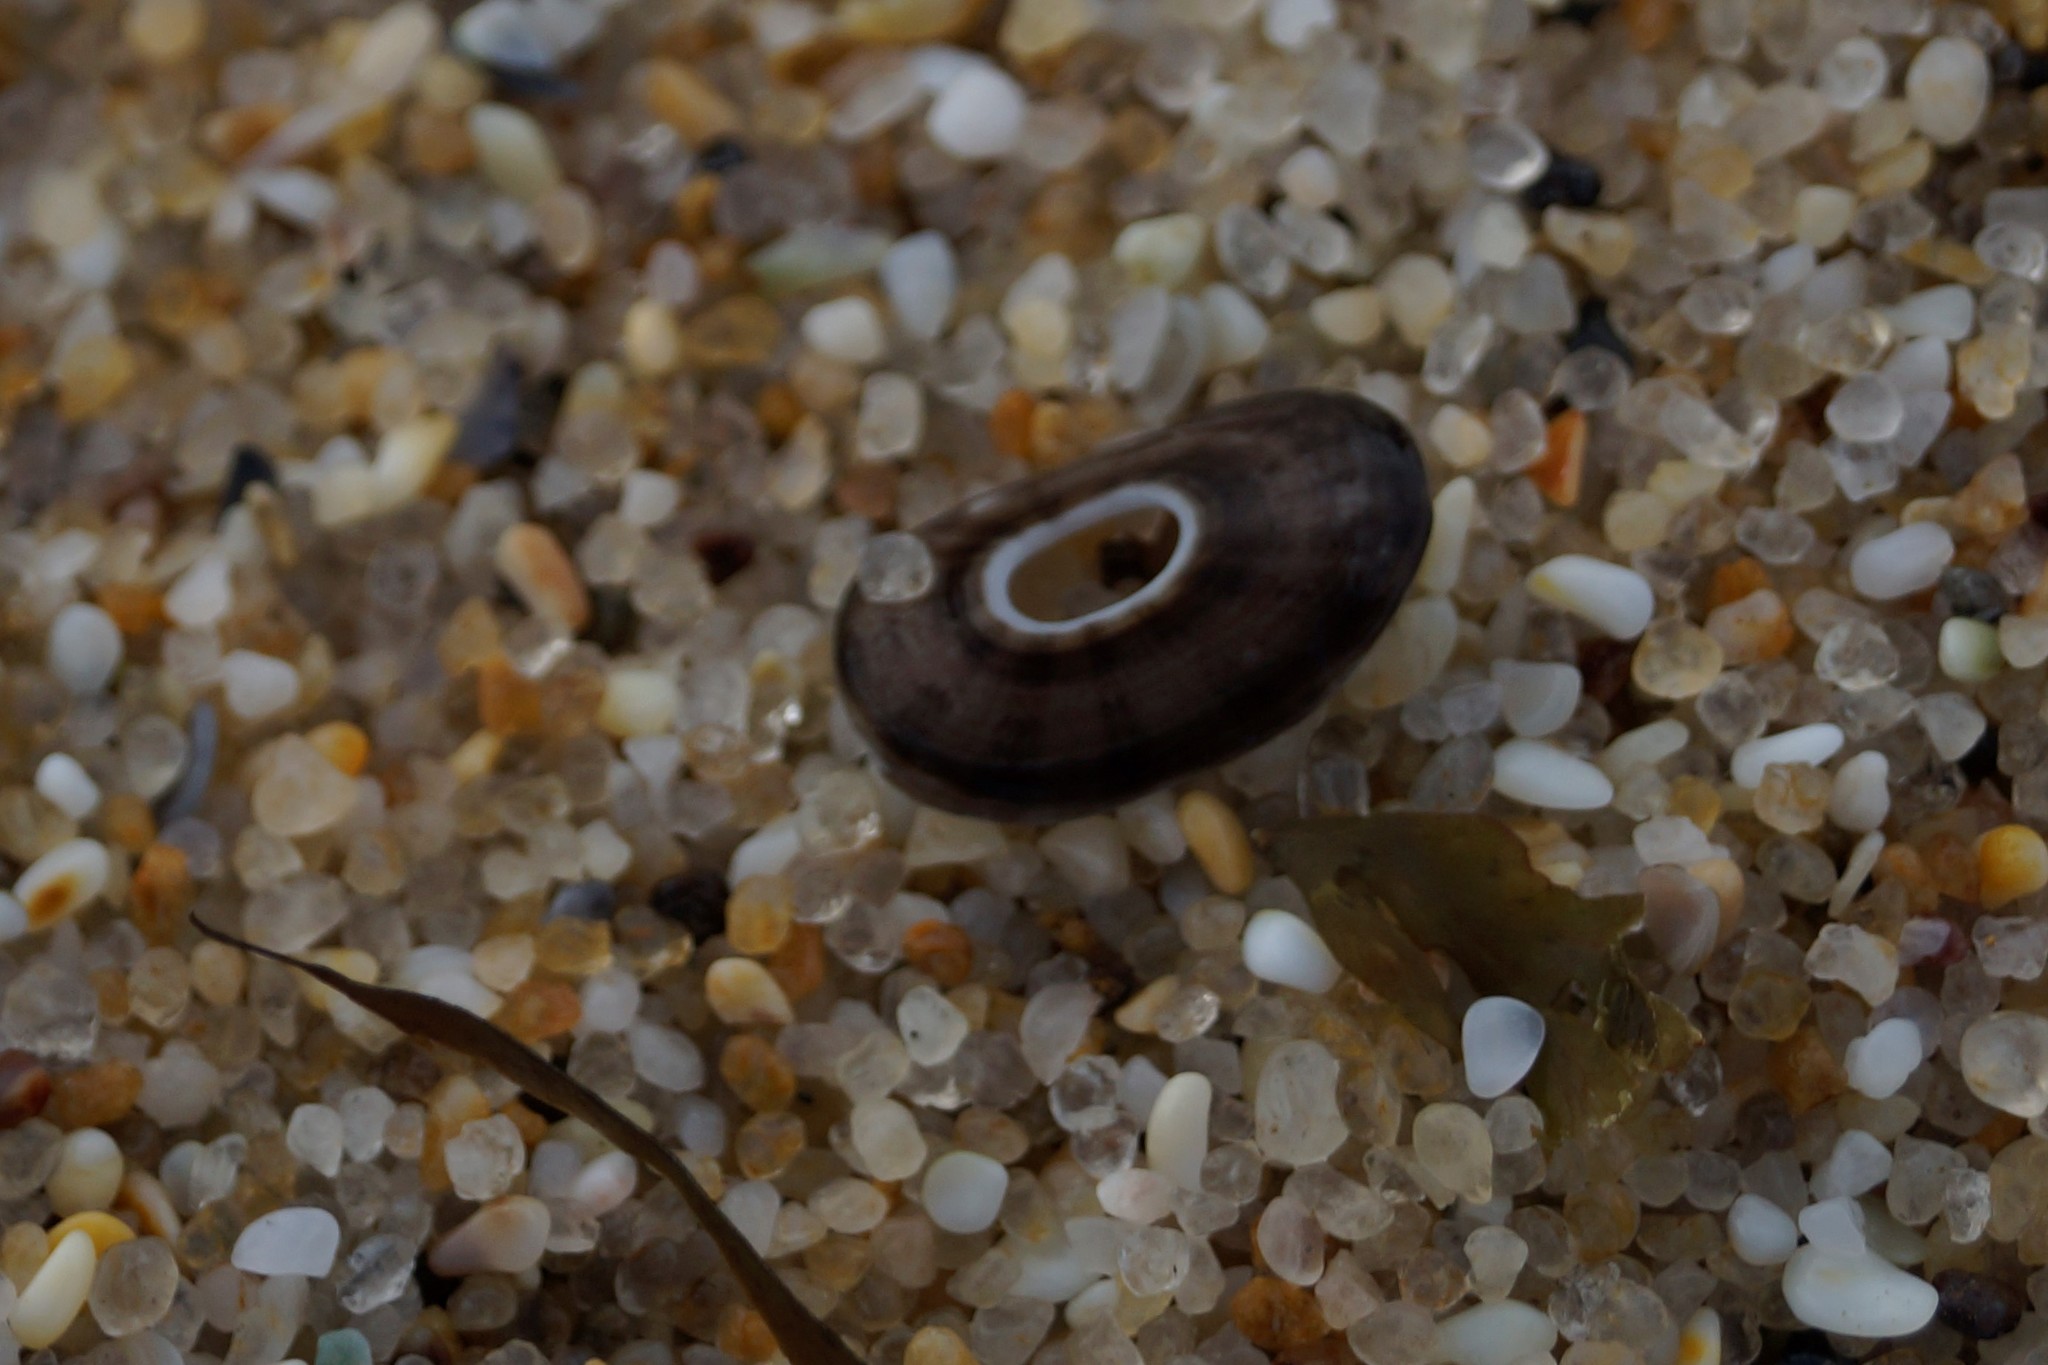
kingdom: Animalia
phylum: Mollusca
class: Gastropoda
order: Lepetellida
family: Fissurellidae
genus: Amblychilepas
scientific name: Amblychilepas nigrita
